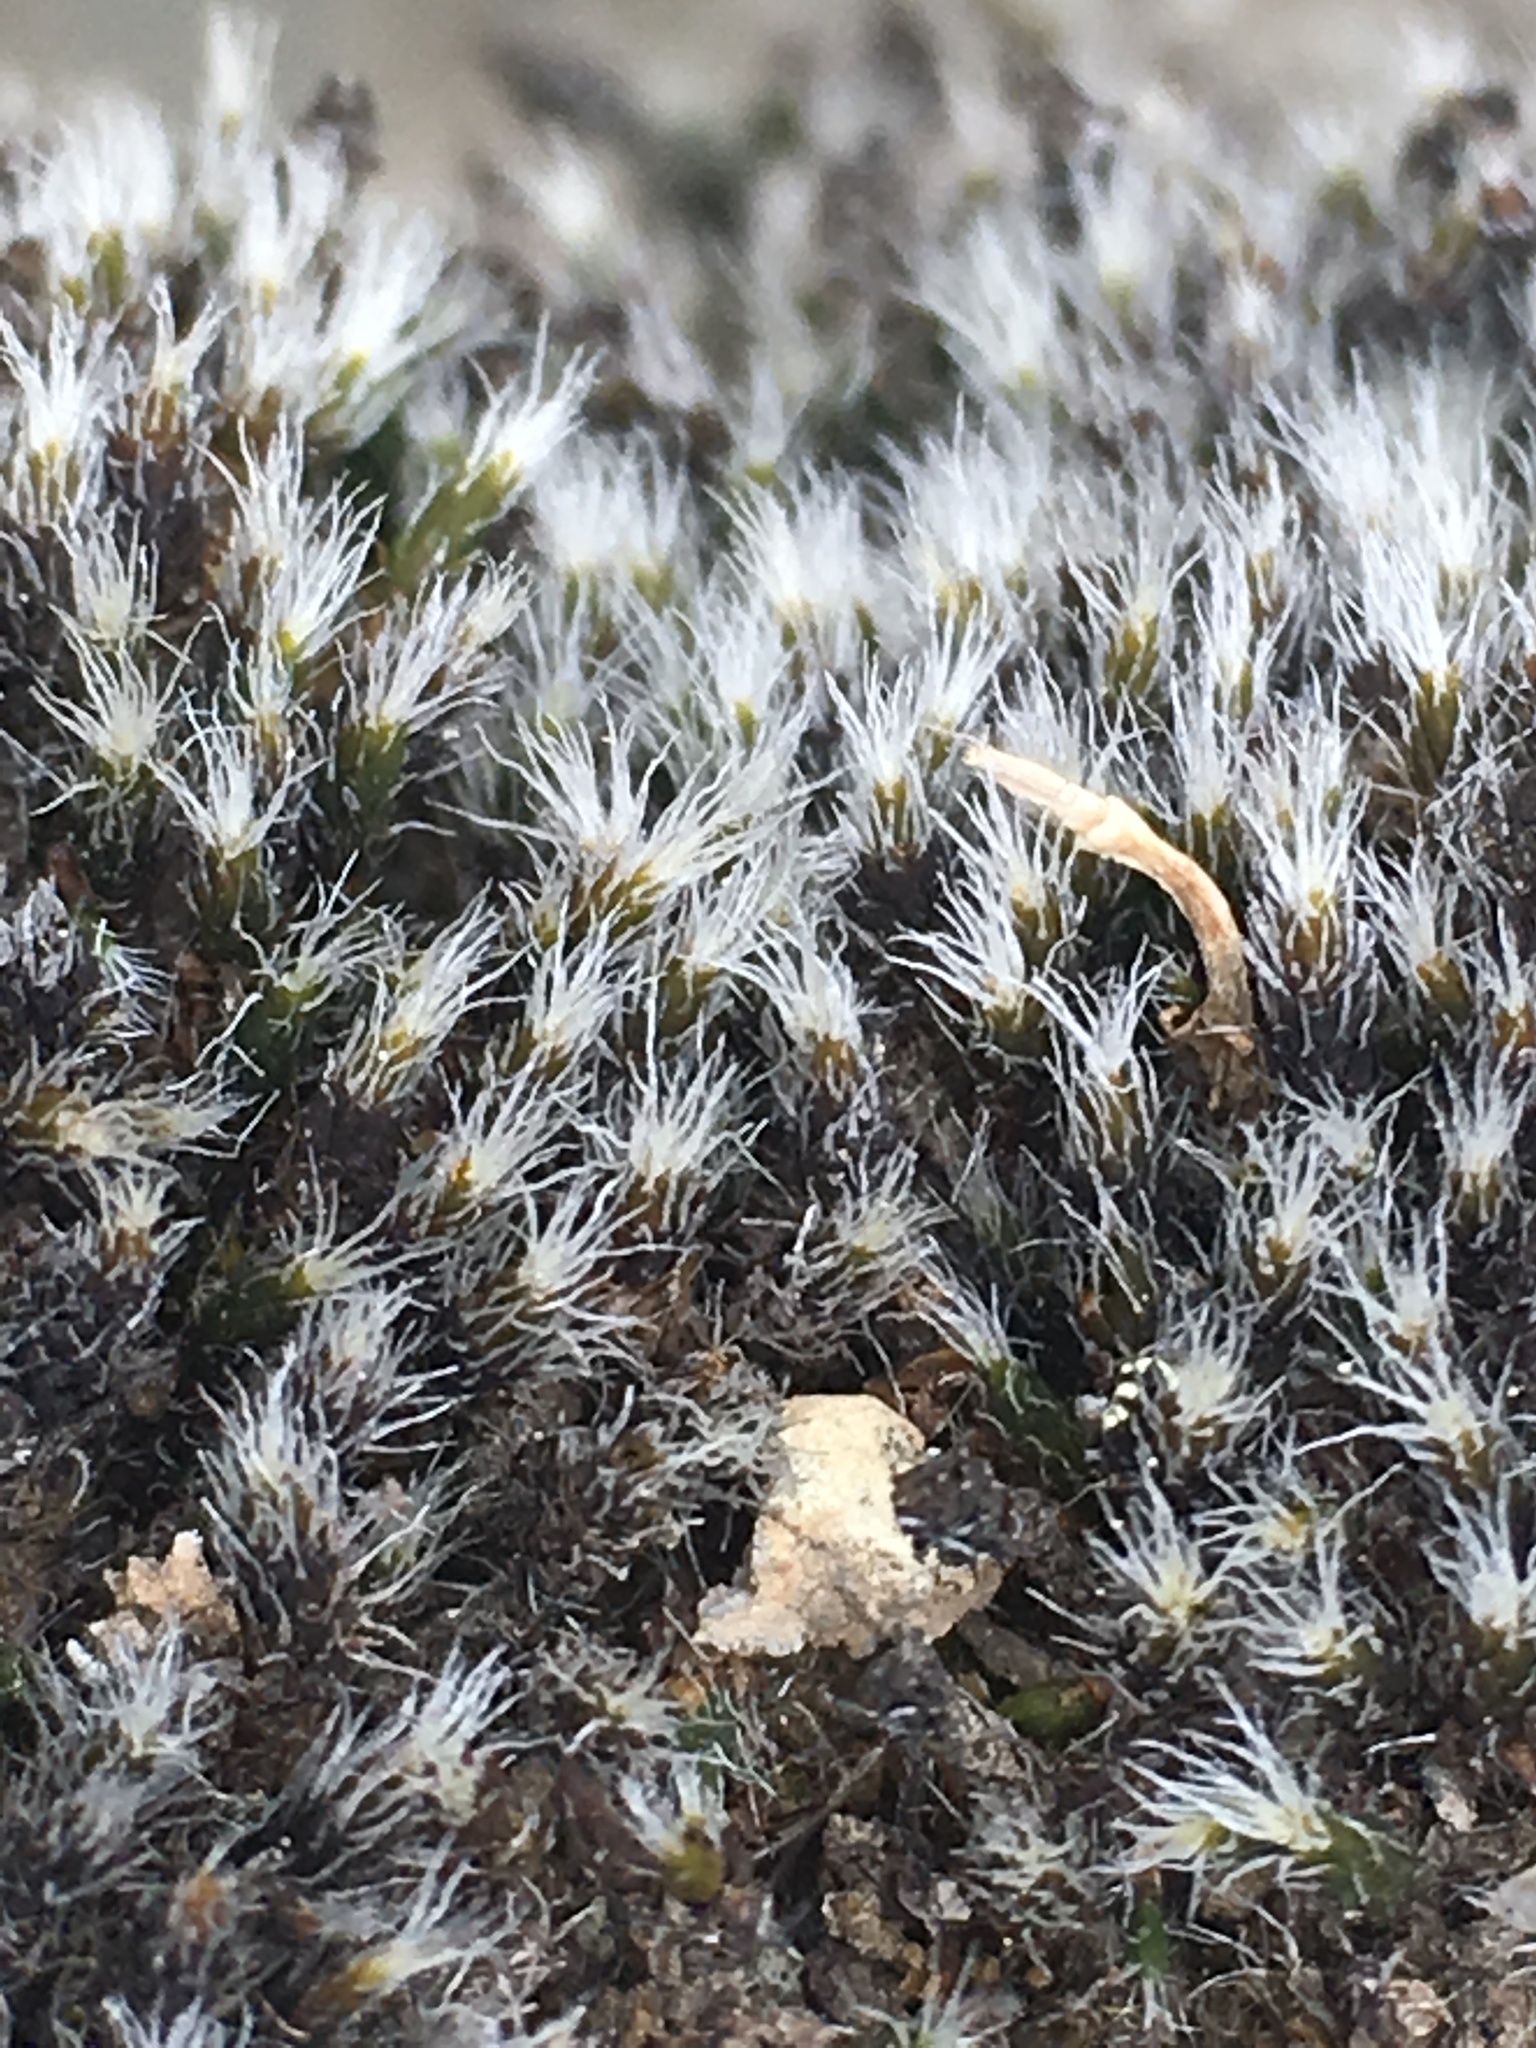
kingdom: Plantae
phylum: Bryophyta
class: Bryopsida
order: Grimmiales
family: Grimmiaceae
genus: Grimmia
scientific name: Grimmia laevigata
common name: Hoary grimmia
